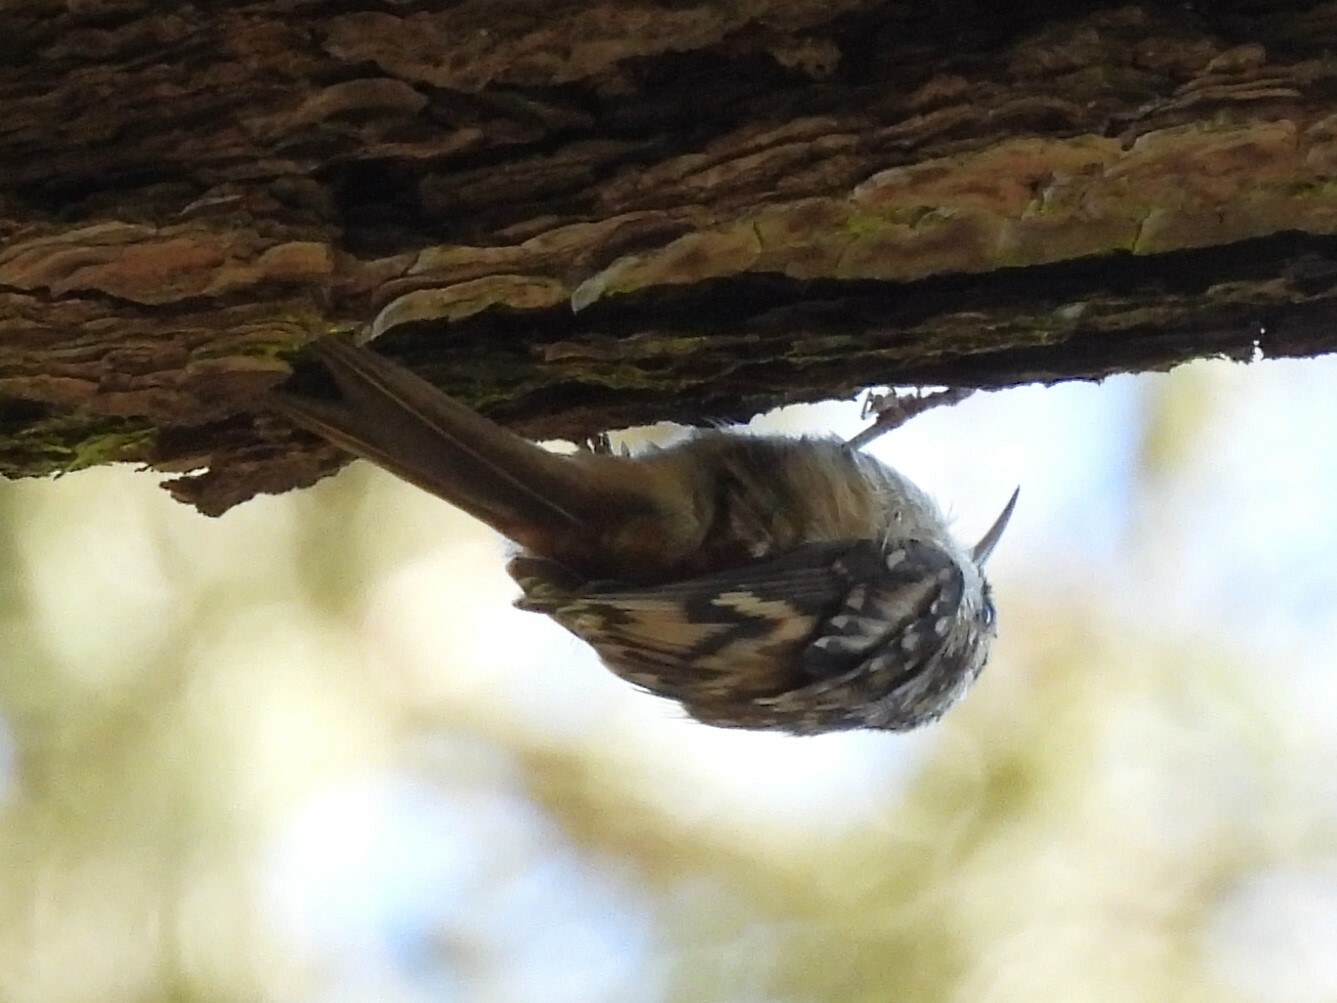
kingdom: Animalia
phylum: Chordata
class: Aves
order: Passeriformes
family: Certhiidae
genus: Certhia
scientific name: Certhia americana
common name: Brown creeper
